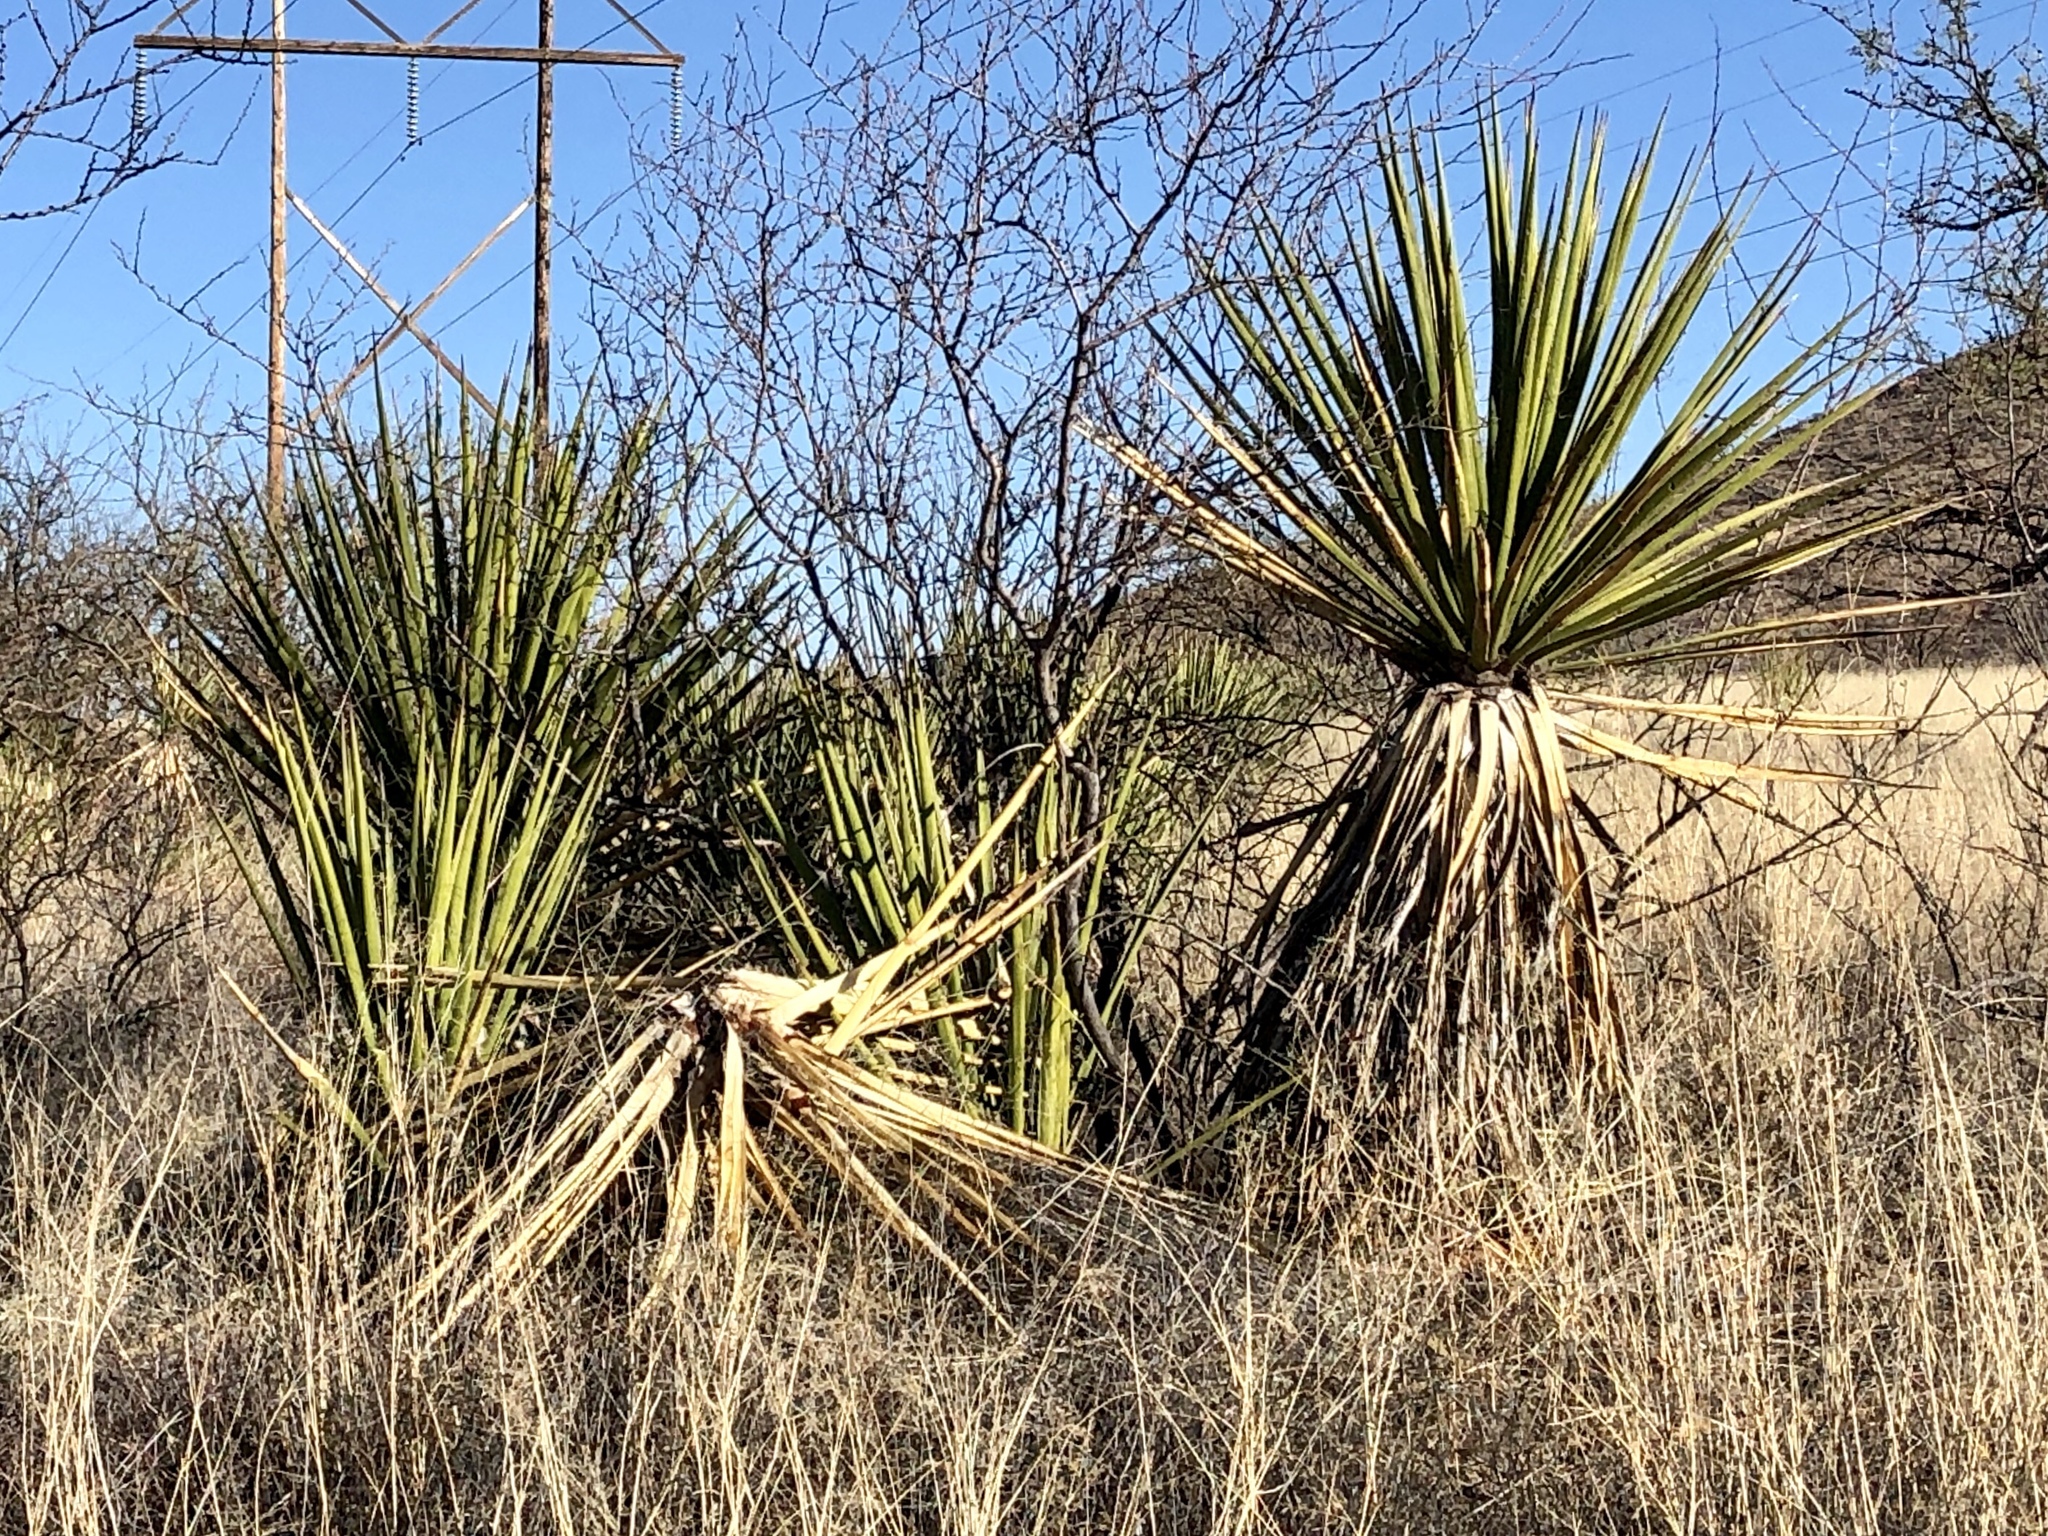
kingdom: Plantae
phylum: Tracheophyta
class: Liliopsida
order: Asparagales
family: Asparagaceae
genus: Yucca
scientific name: Yucca baccata
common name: Banana yucca
